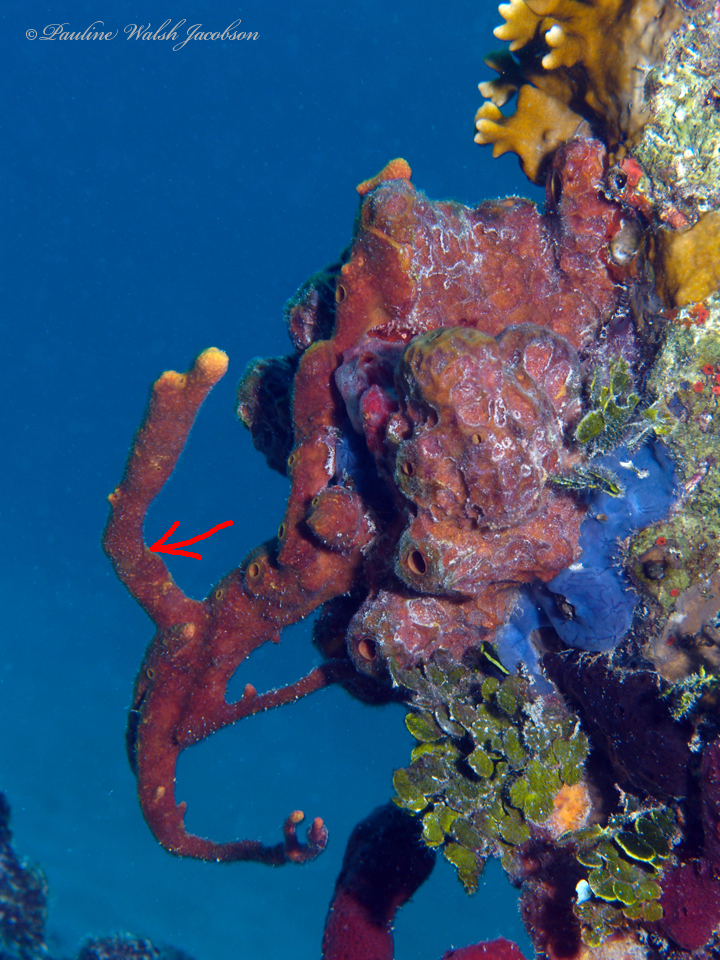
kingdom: Animalia
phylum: Porifera
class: Demospongiae
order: Verongiida
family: Aplysinidae
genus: Aplysina
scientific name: Aplysina fulva
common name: Scattered pore rope sponge
